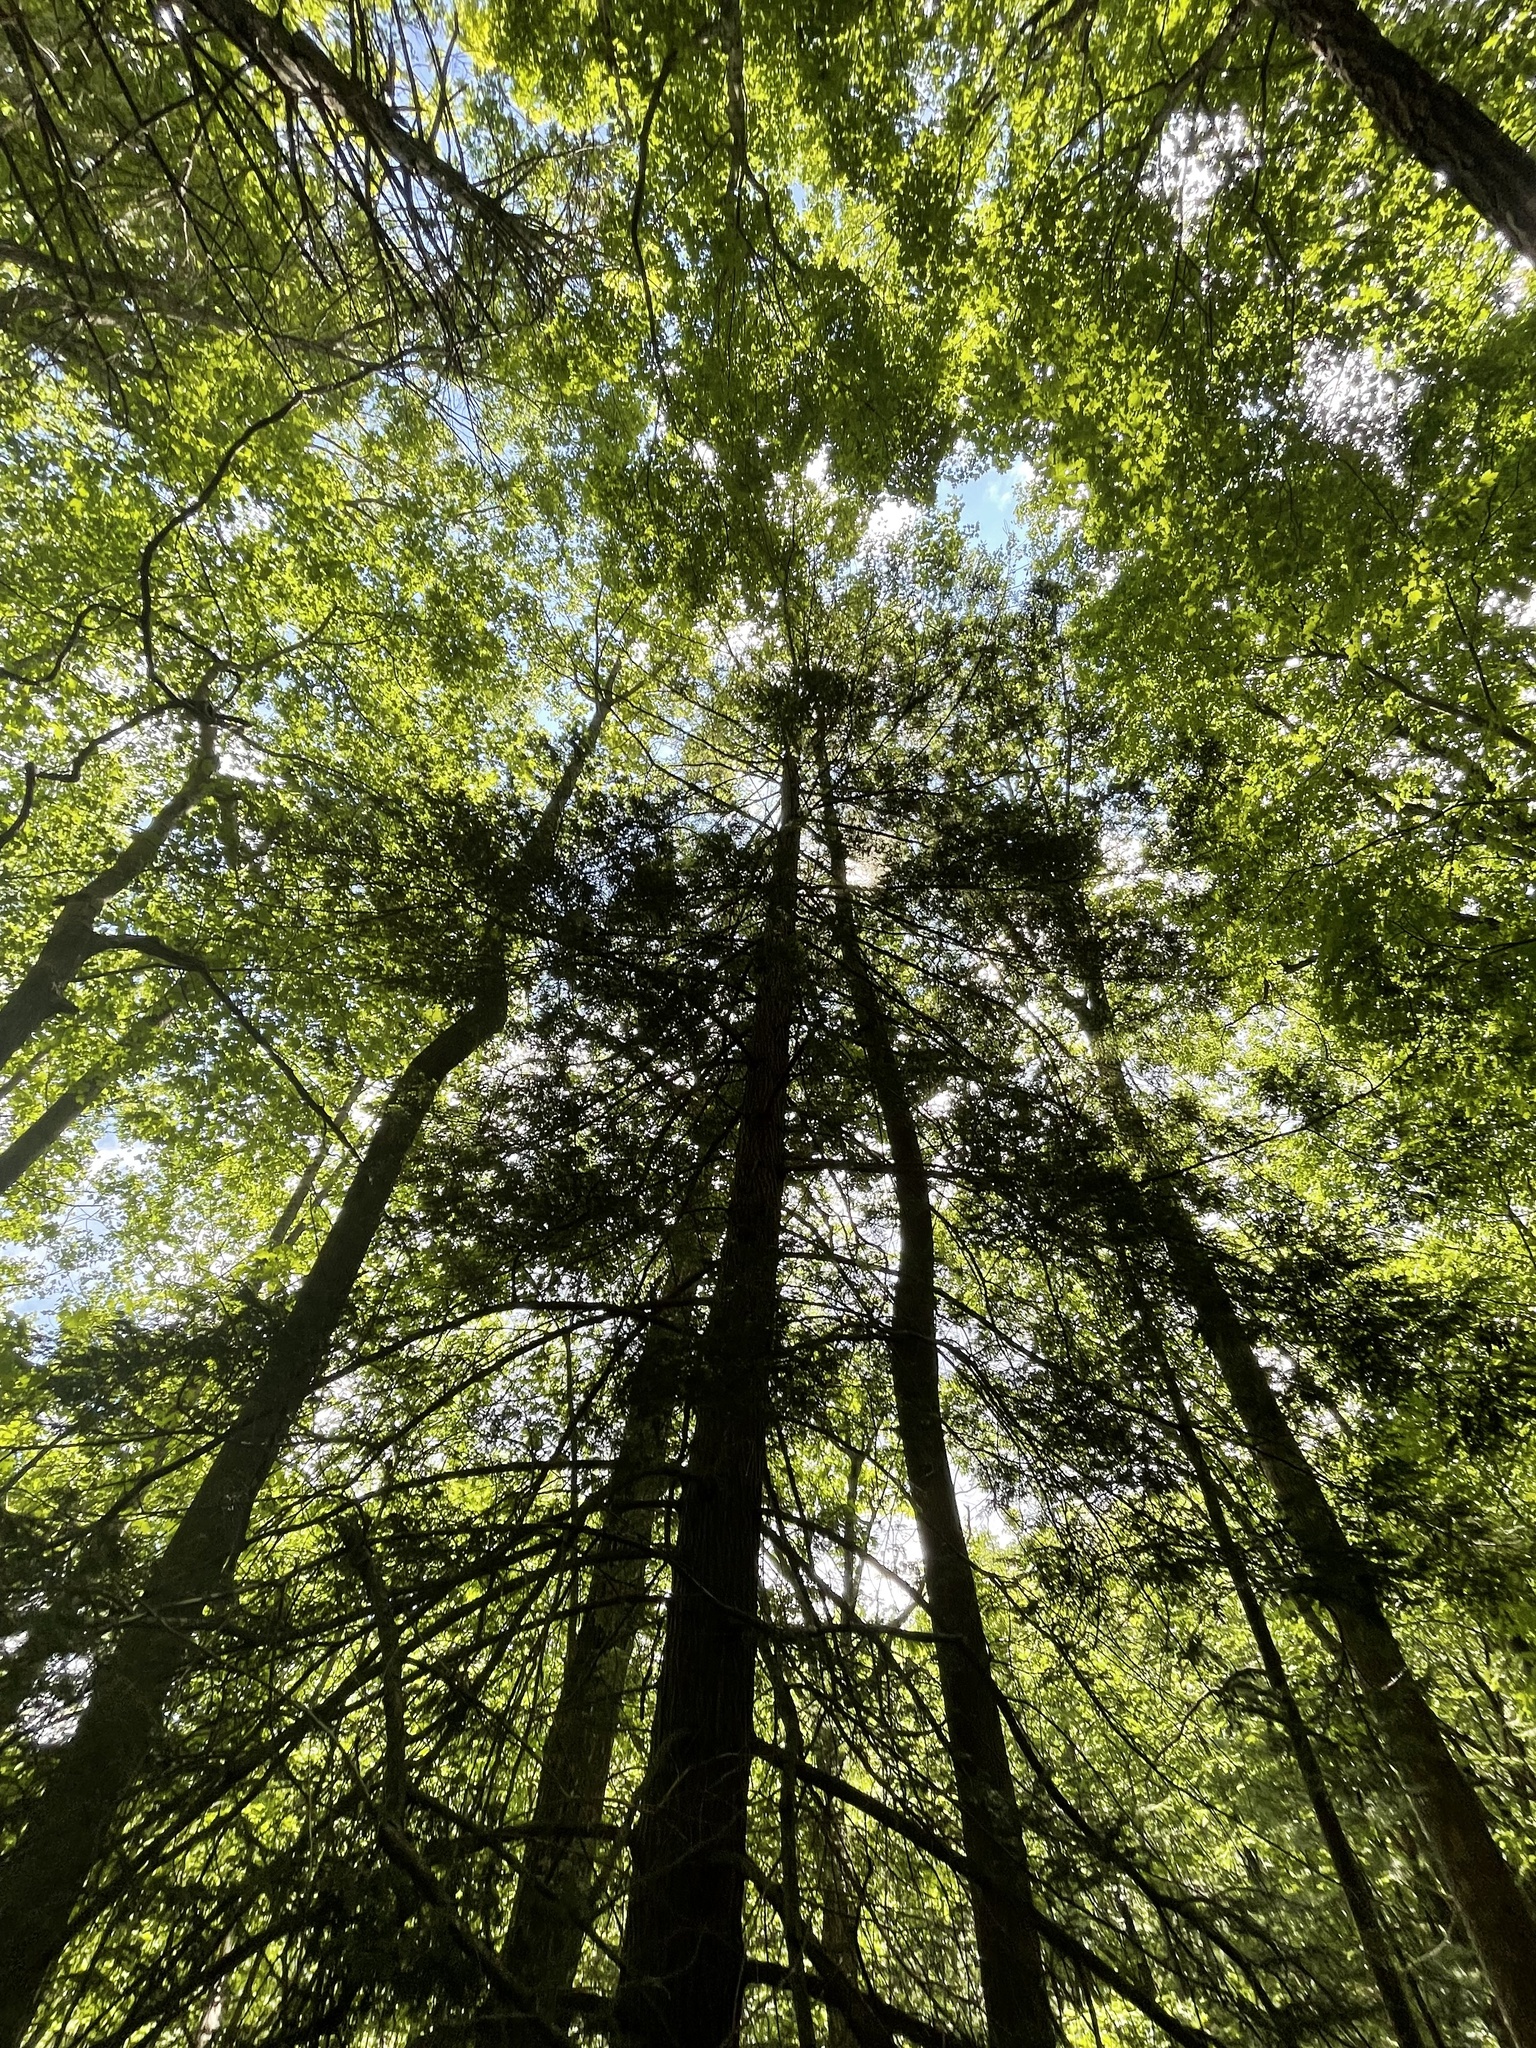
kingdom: Plantae
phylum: Tracheophyta
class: Pinopsida
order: Pinales
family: Pinaceae
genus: Tsuga
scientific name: Tsuga canadensis
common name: Eastern hemlock
